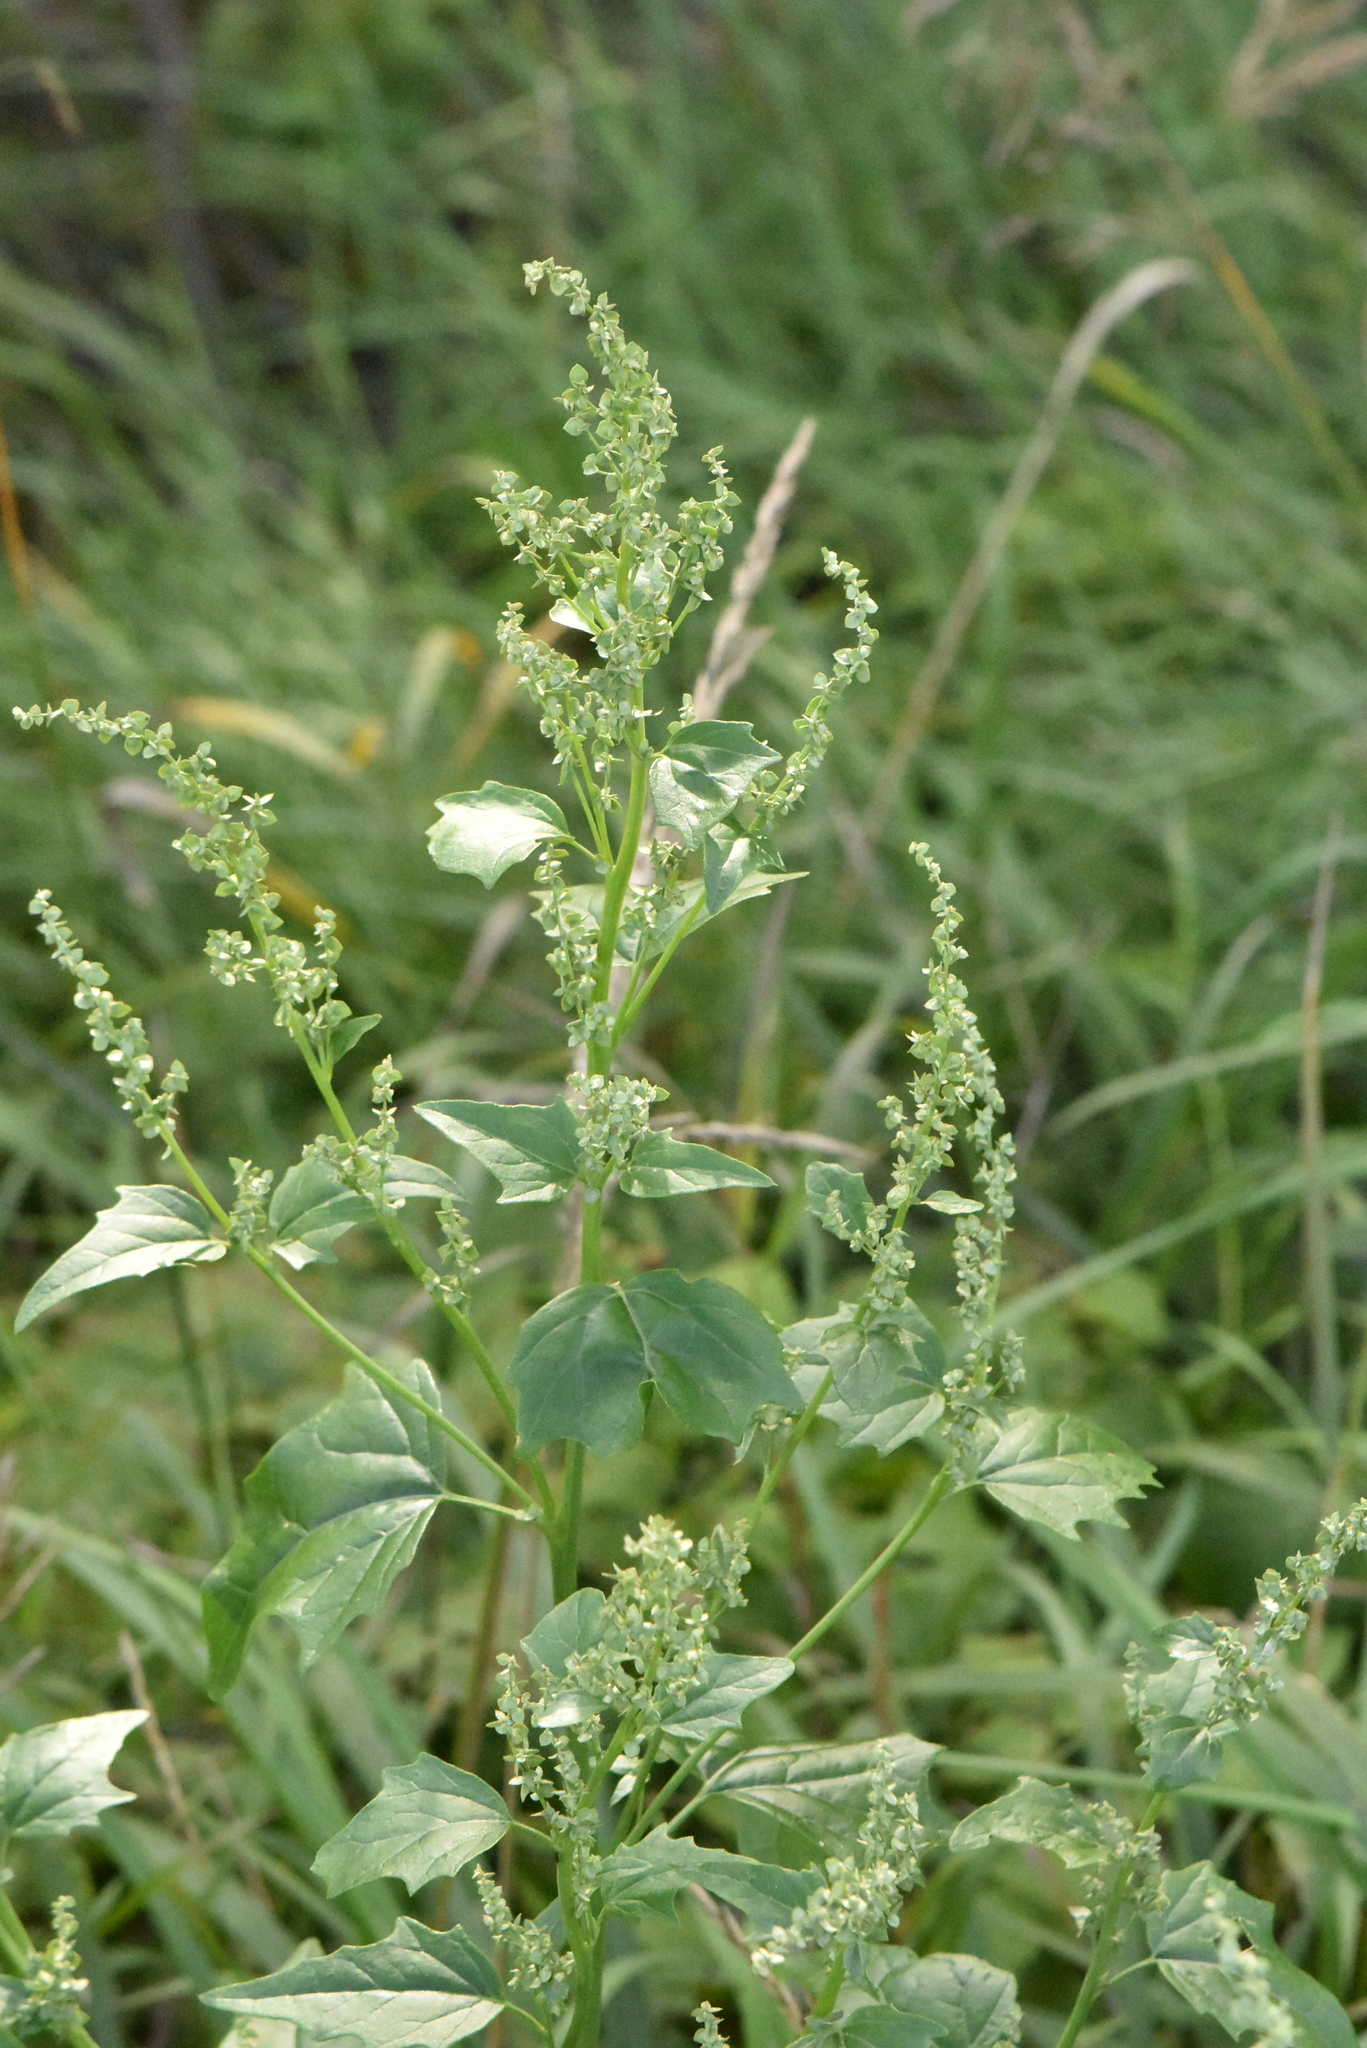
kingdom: Plantae
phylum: Tracheophyta
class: Magnoliopsida
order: Caryophyllales
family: Amaranthaceae
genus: Atriplex
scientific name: Atriplex sagittata
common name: Purple orache
